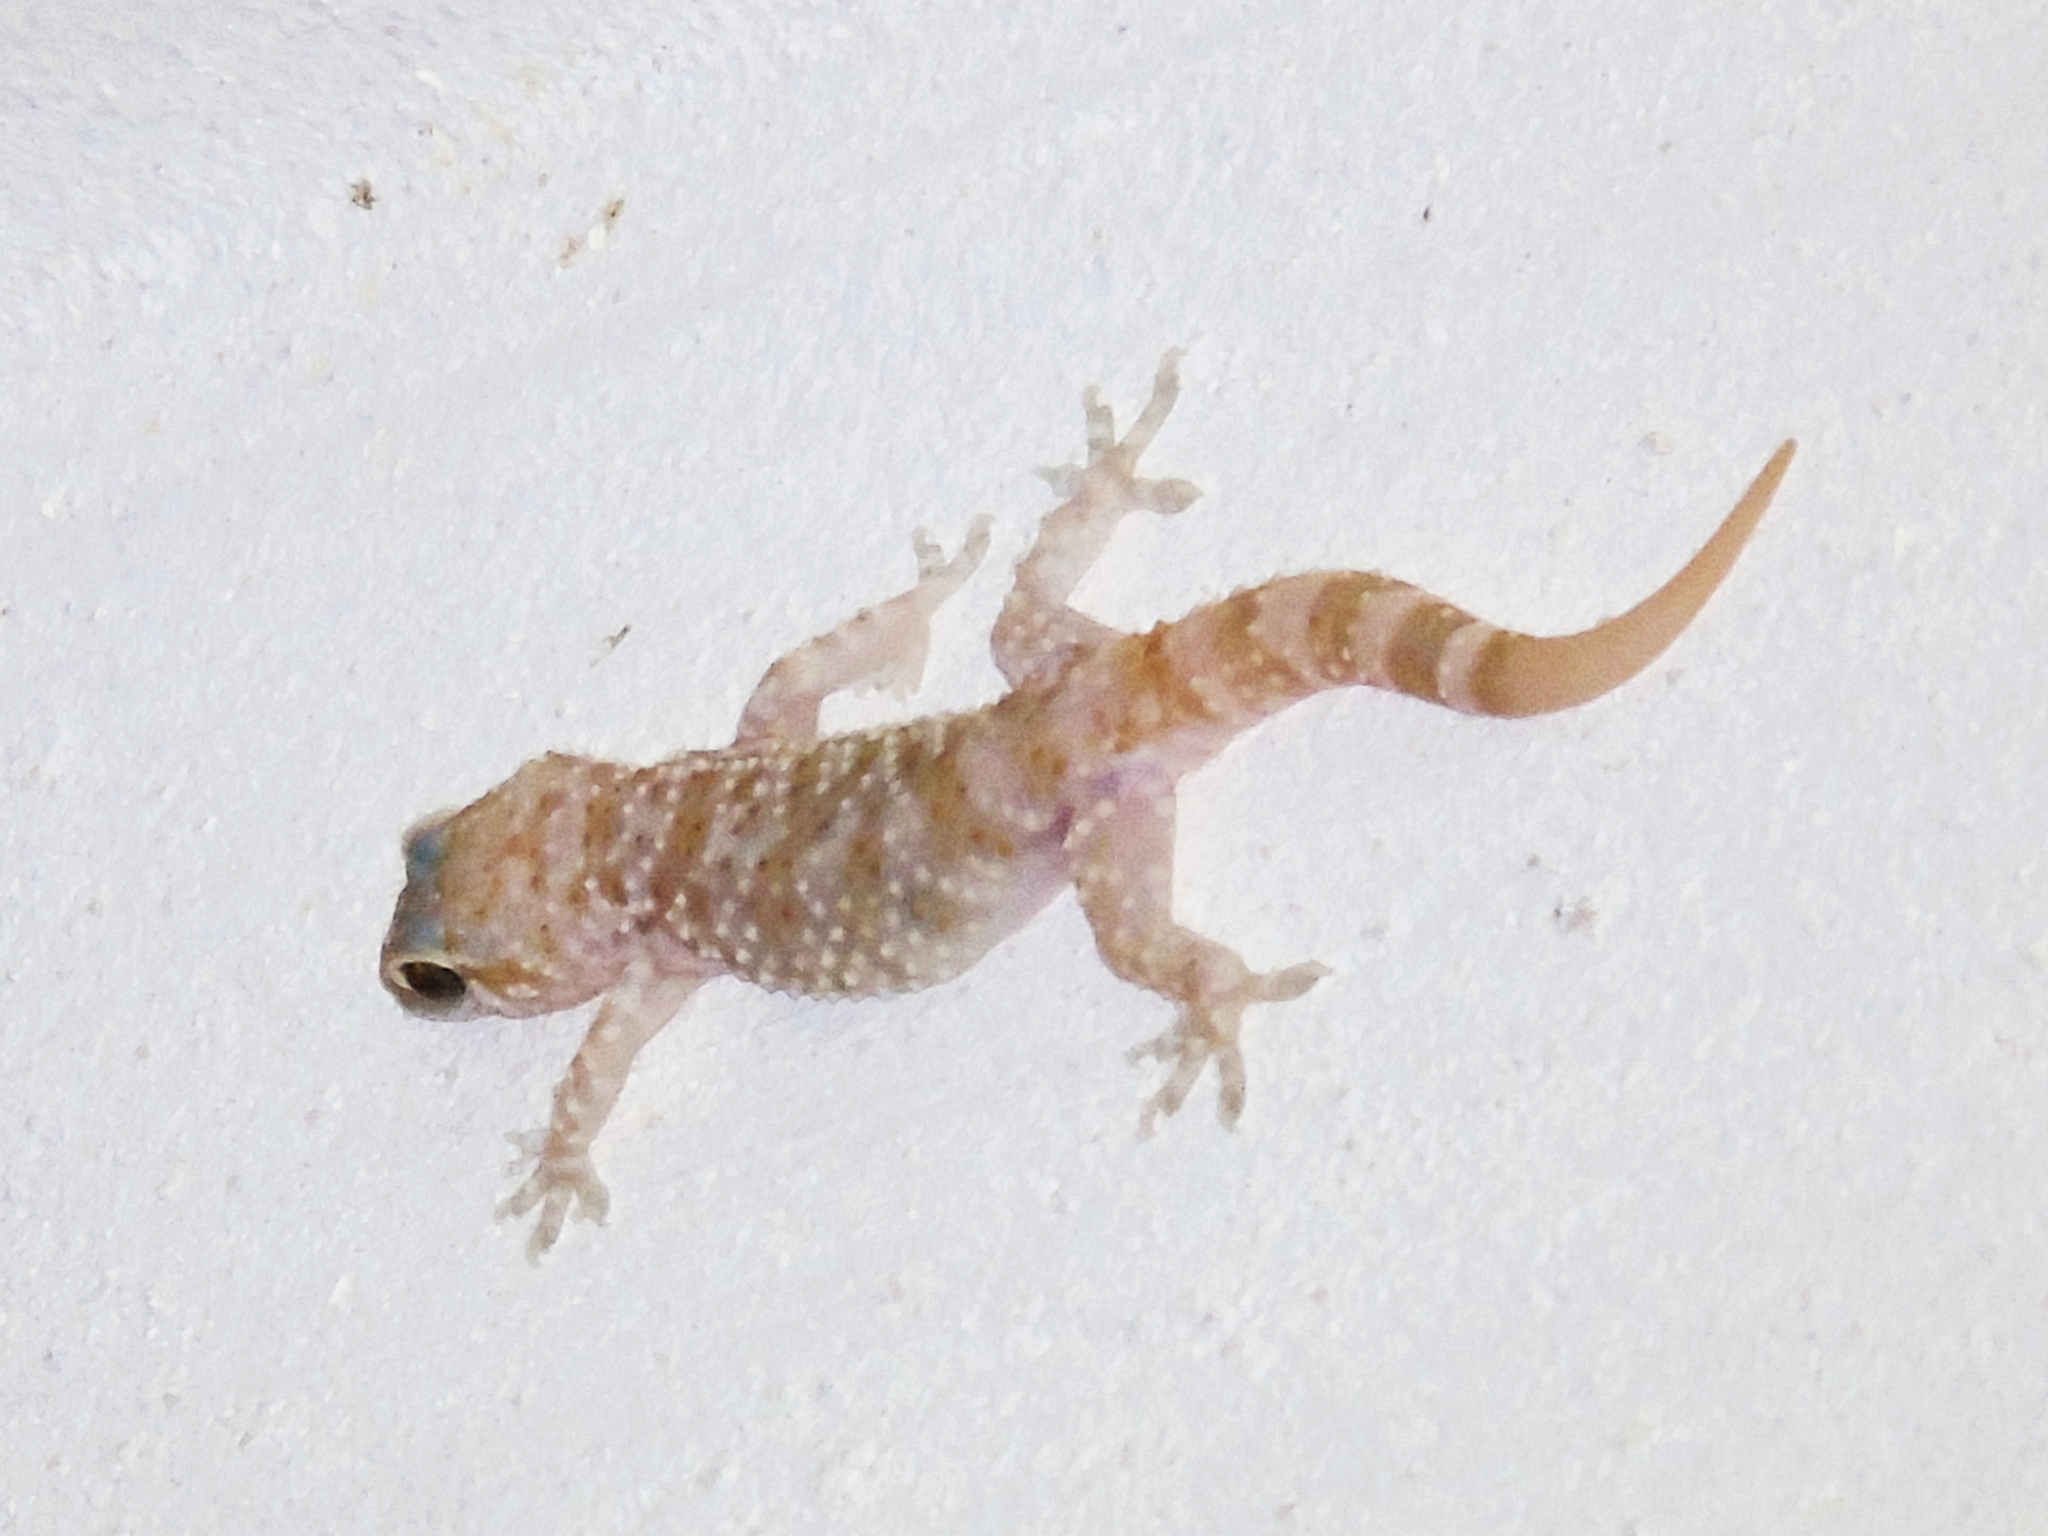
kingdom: Animalia
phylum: Chordata
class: Squamata
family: Gekkonidae
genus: Hemidactylus
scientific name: Hemidactylus turcicus
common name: Turkish gecko
